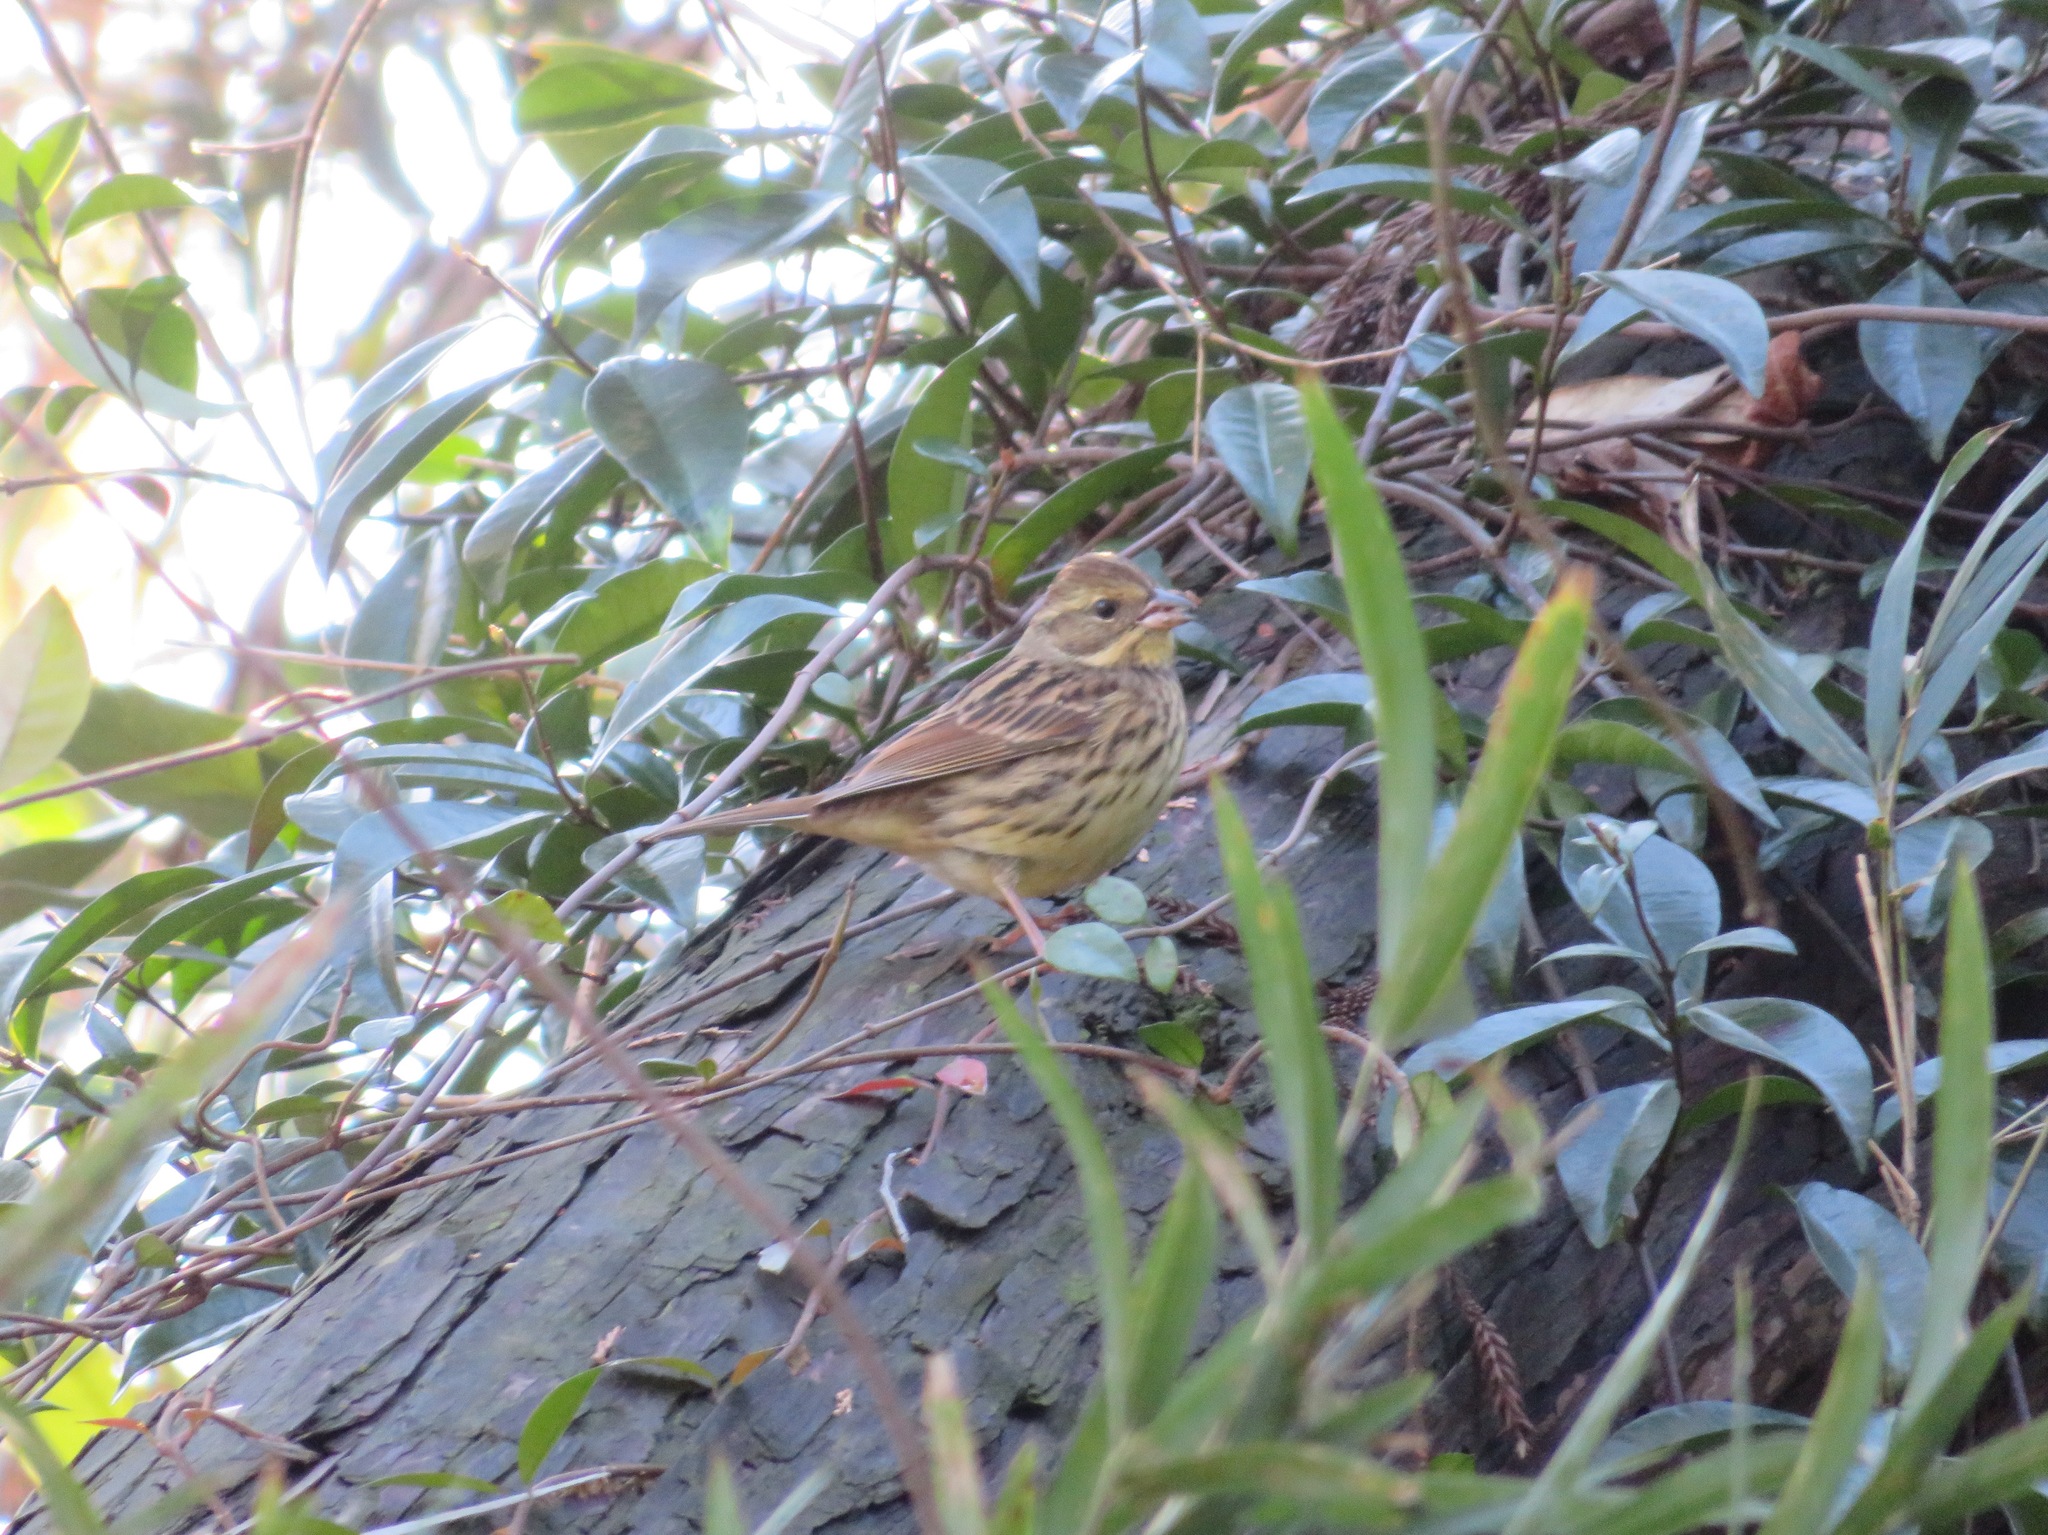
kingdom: Animalia
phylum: Chordata
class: Aves
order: Passeriformes
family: Emberizidae
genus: Emberiza
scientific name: Emberiza personata
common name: Masked bunting
